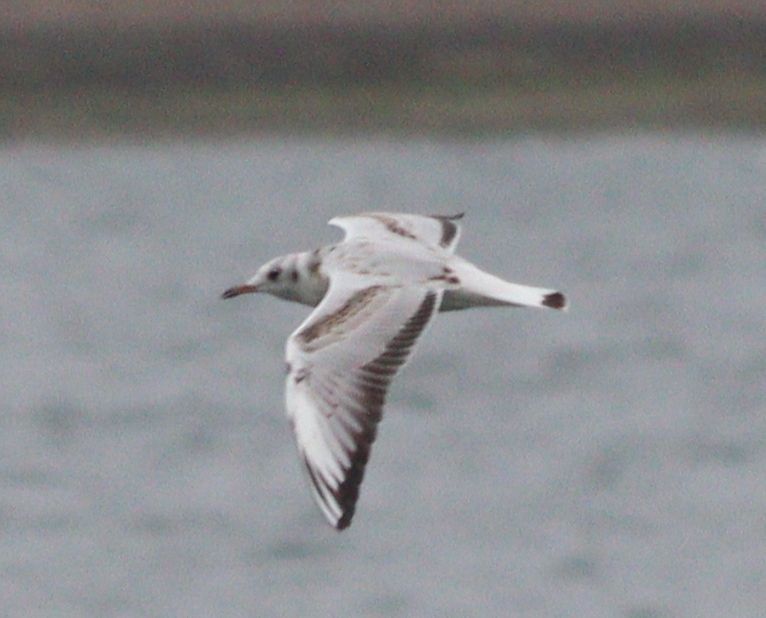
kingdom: Animalia
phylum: Chordata
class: Aves
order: Charadriiformes
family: Laridae
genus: Chroicocephalus
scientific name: Chroicocephalus ridibundus
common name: Black-headed gull
